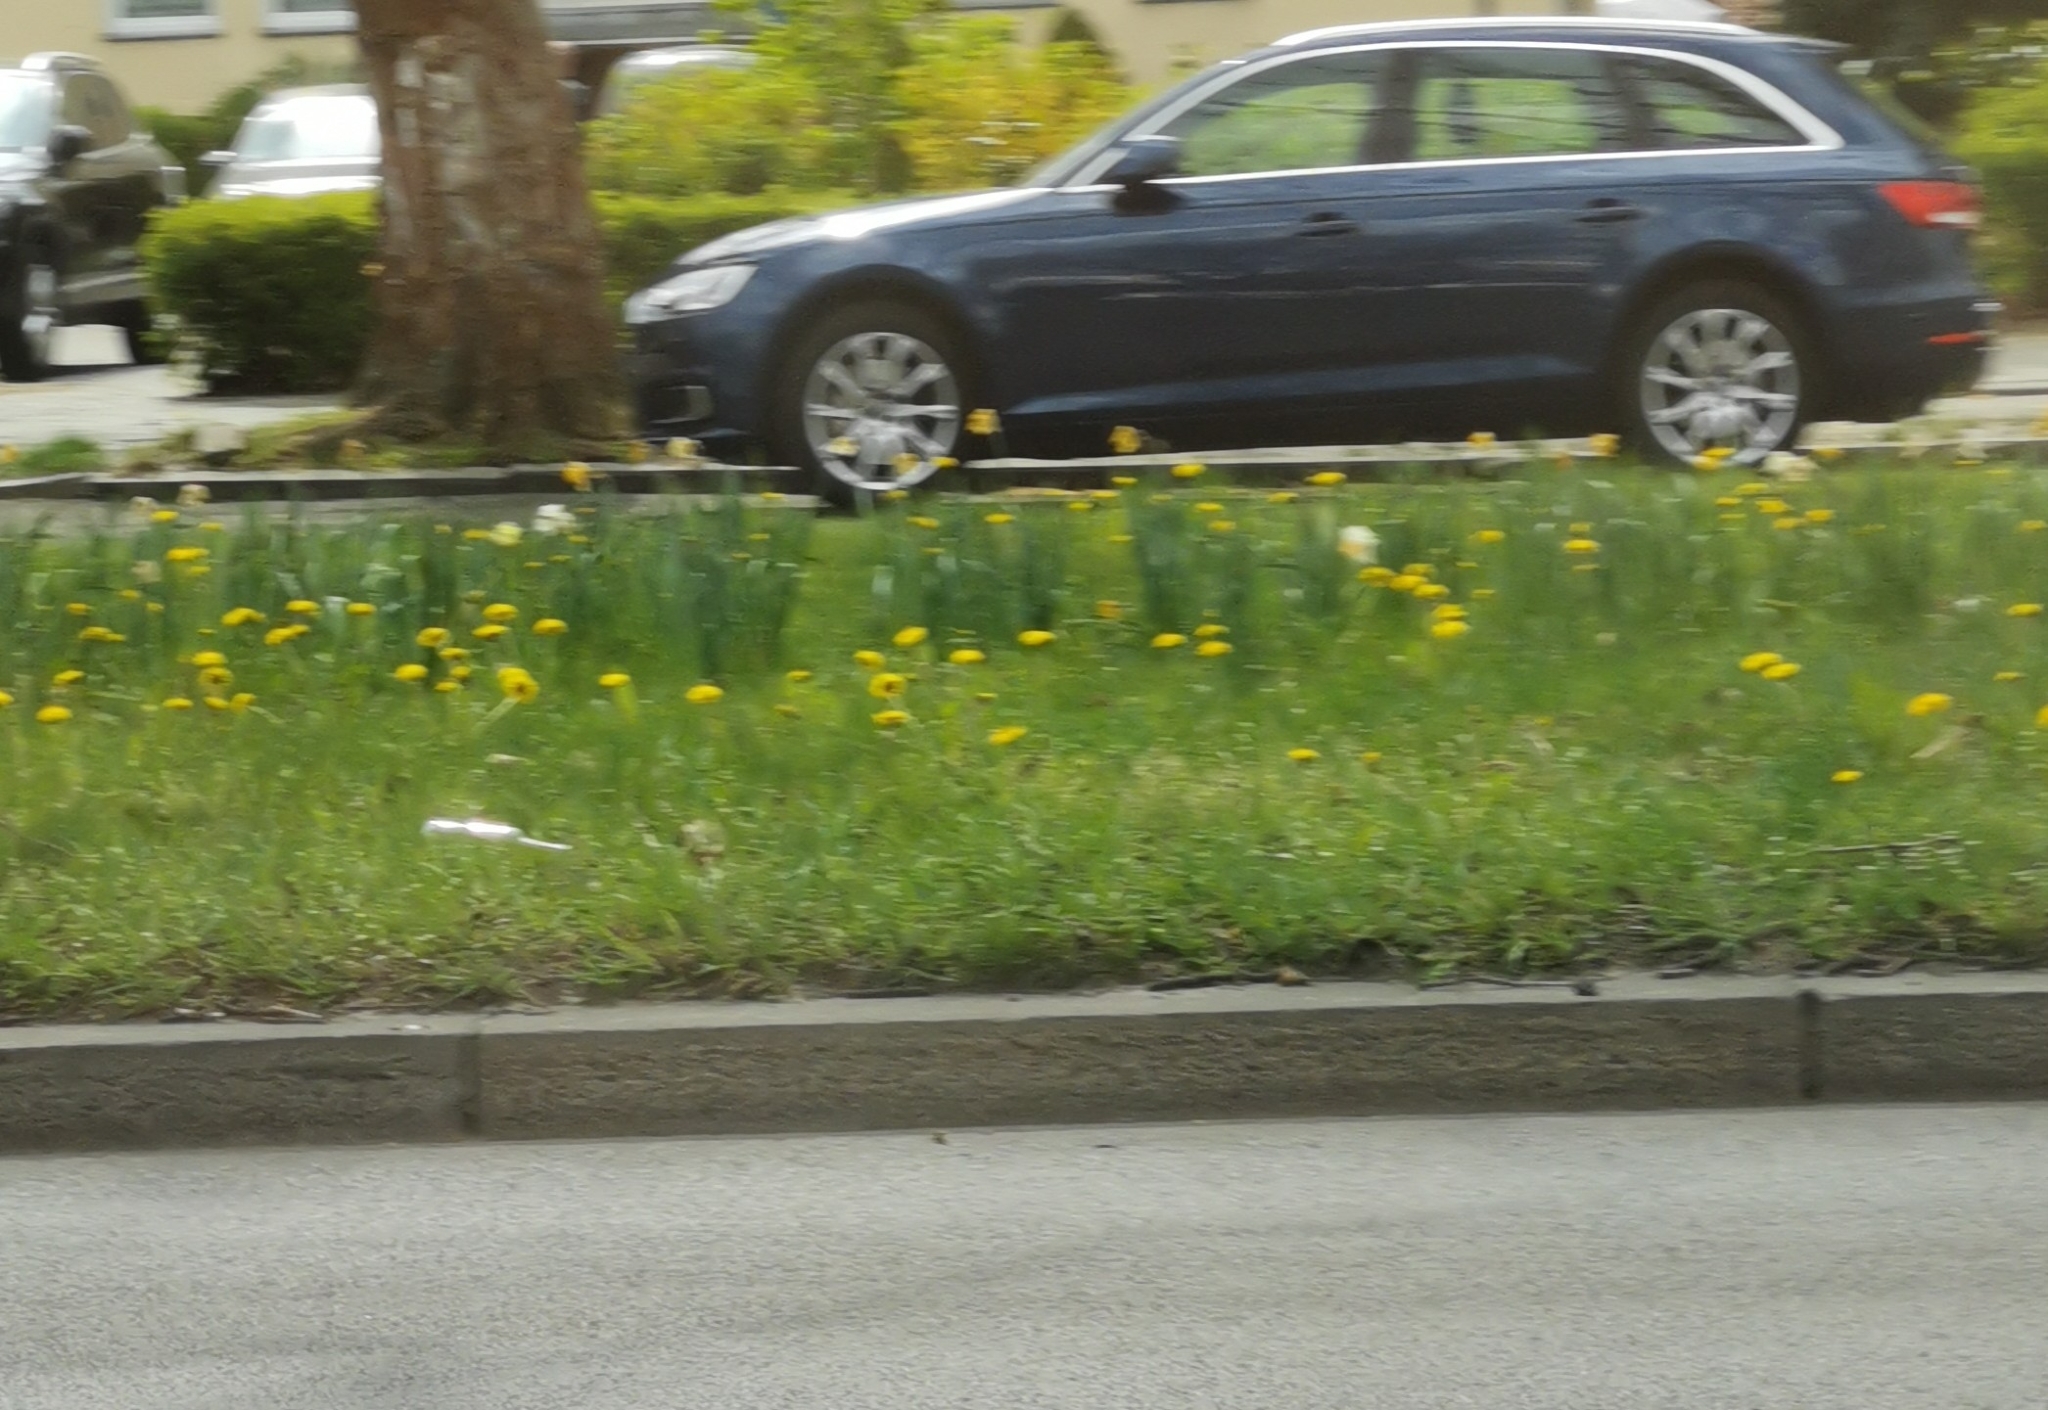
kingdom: Plantae
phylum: Tracheophyta
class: Magnoliopsida
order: Asterales
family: Asteraceae
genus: Taraxacum
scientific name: Taraxacum
